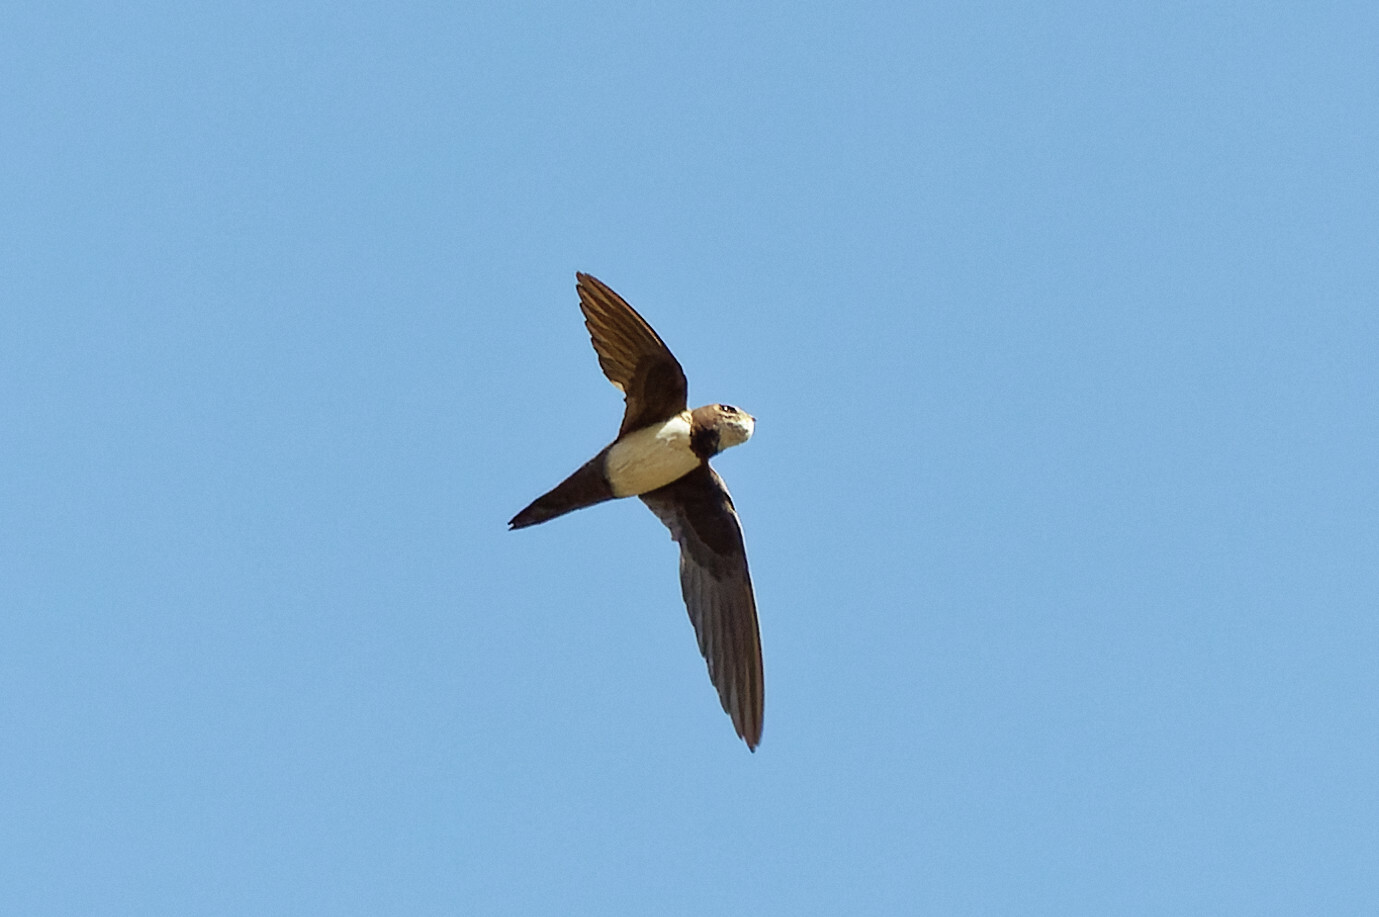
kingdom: Animalia
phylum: Chordata
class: Aves
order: Apodiformes
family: Apodidae
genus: Tachymarptis
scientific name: Tachymarptis melba
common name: Alpine swift
